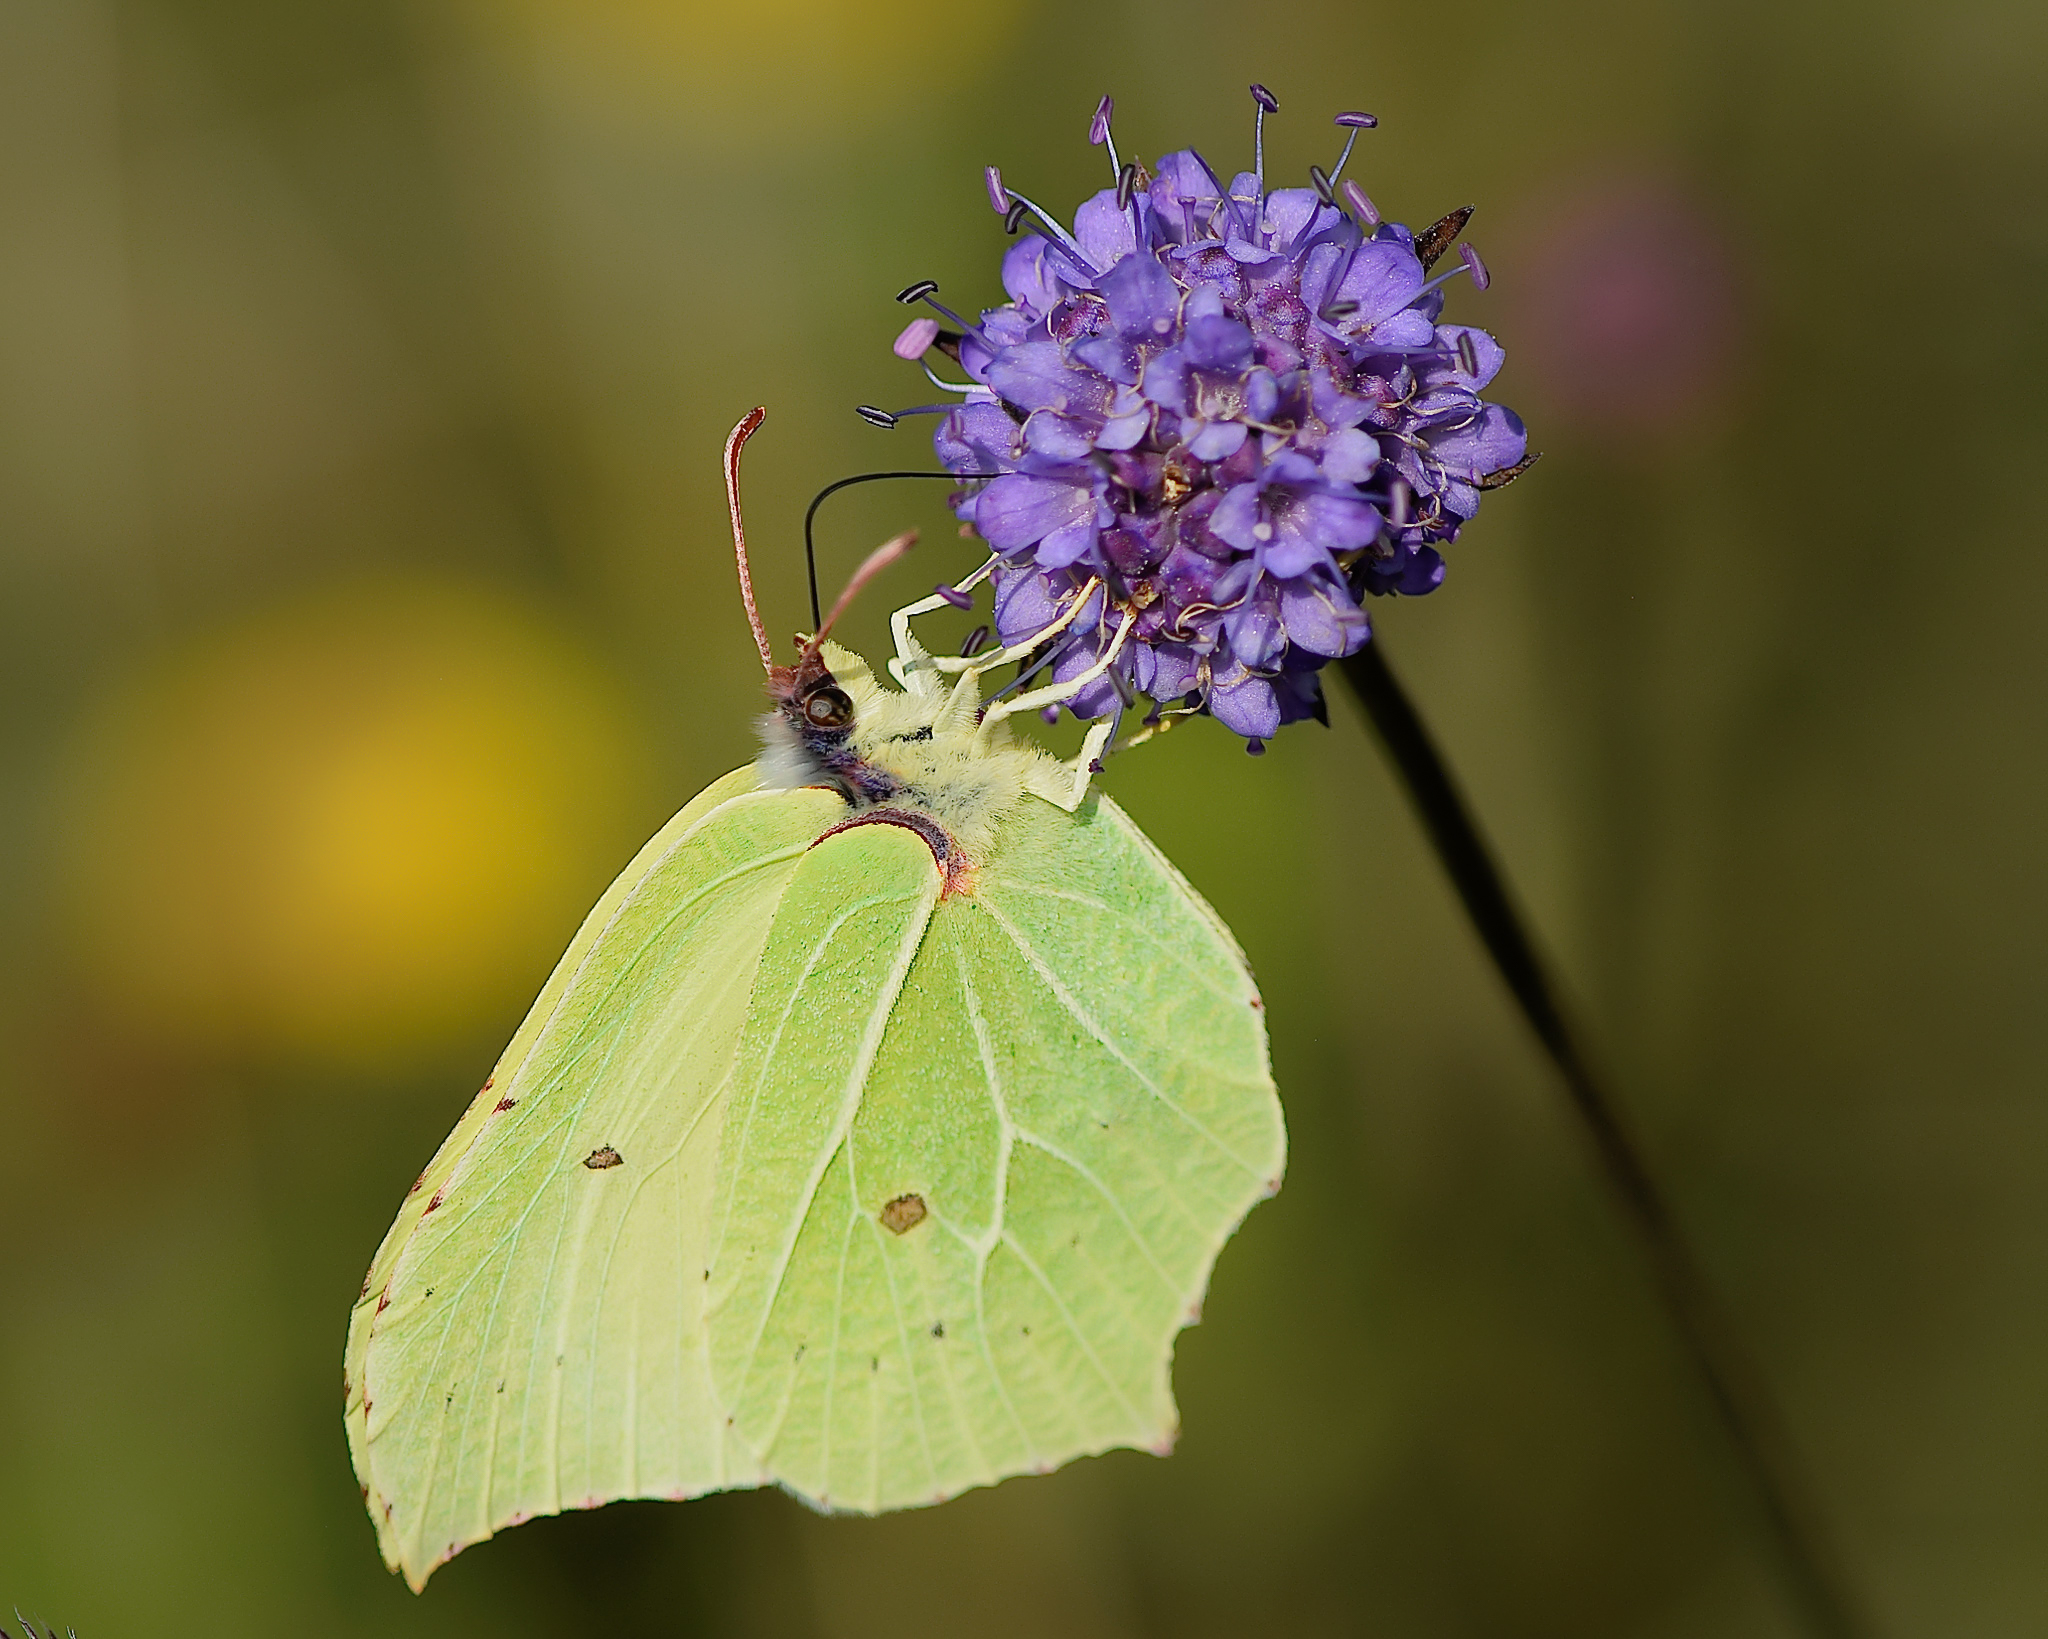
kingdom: Animalia
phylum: Arthropoda
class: Insecta
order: Lepidoptera
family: Pieridae
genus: Gonepteryx
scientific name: Gonepteryx rhamni
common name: Brimstone
